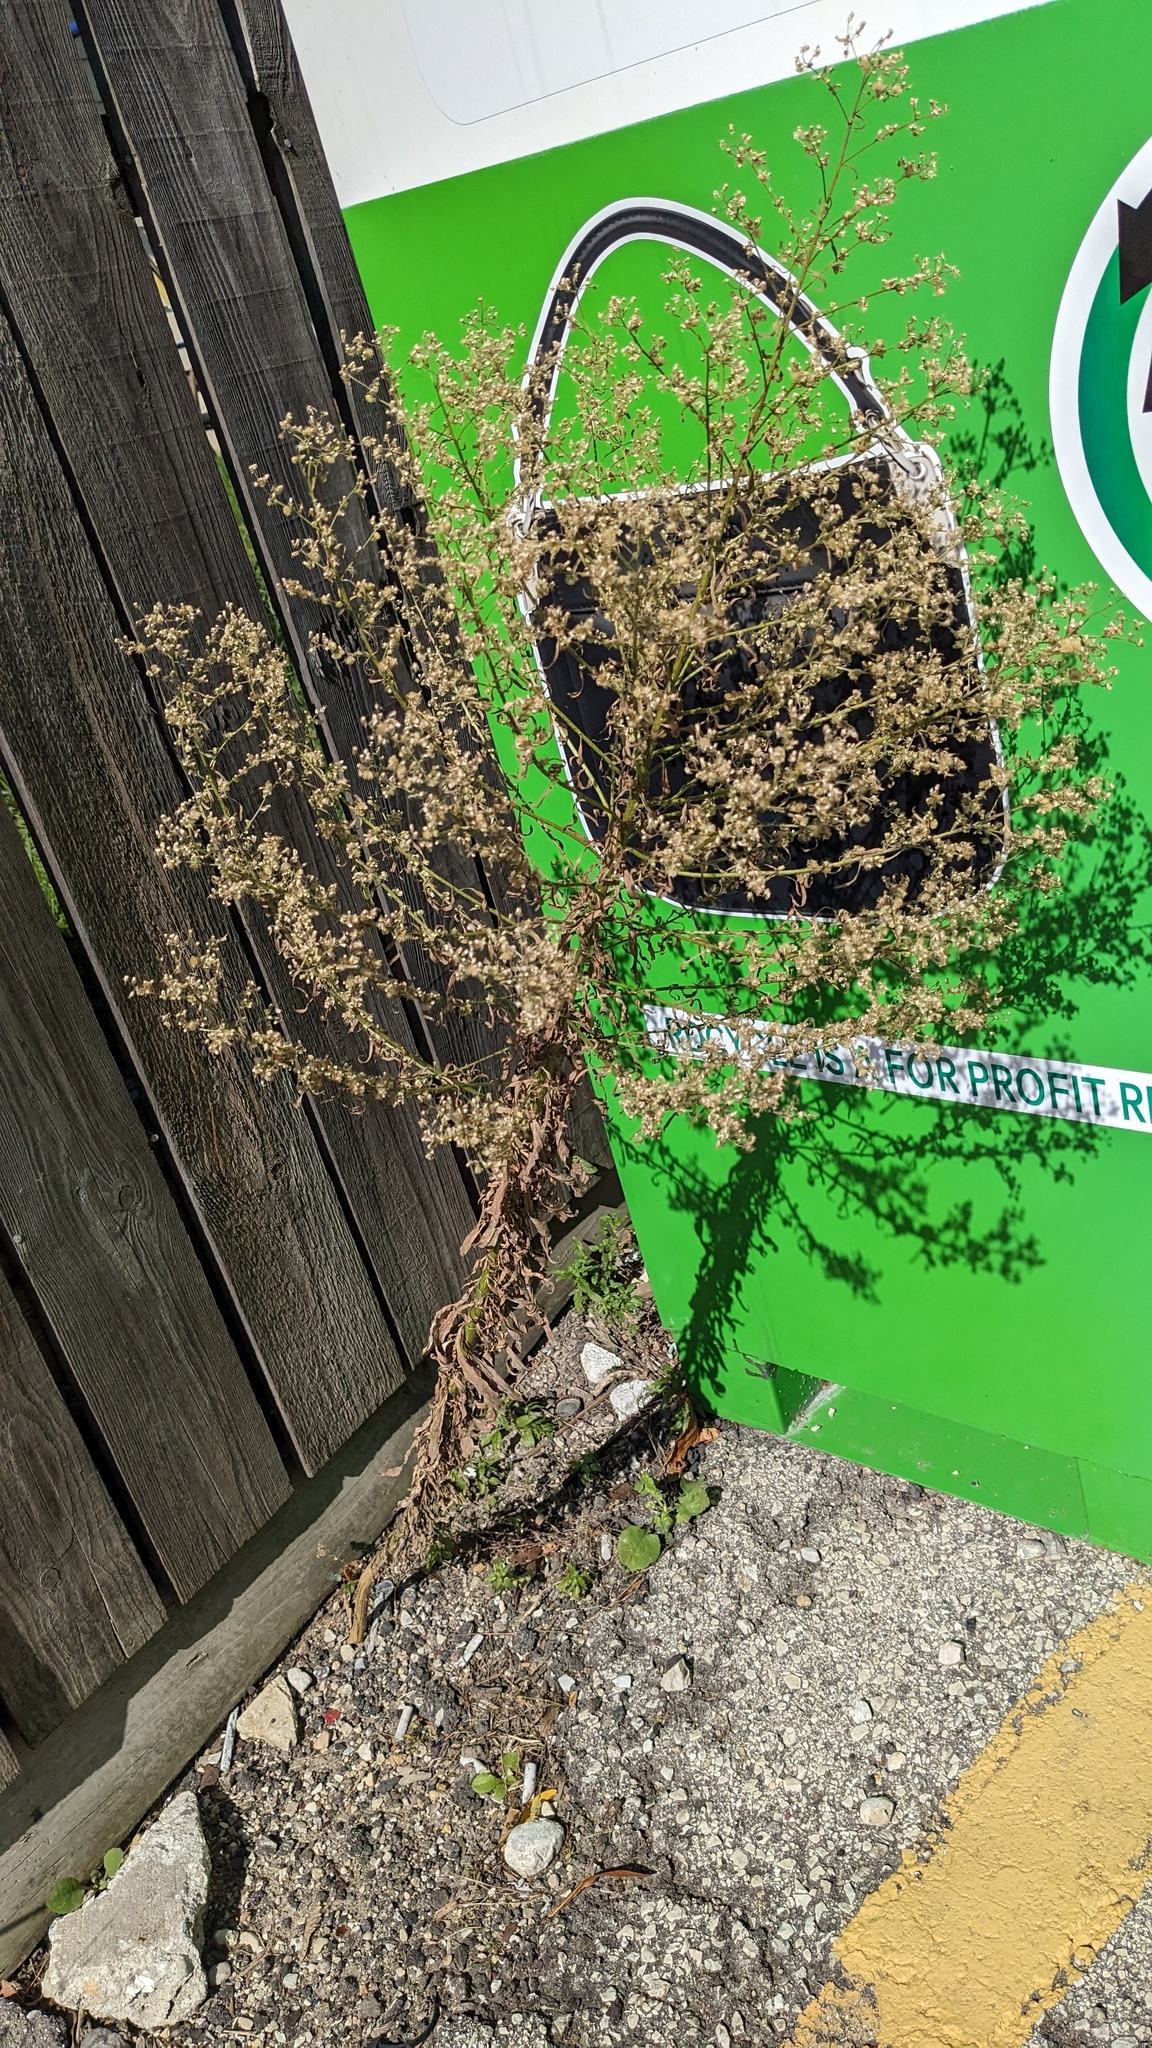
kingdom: Plantae
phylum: Tracheophyta
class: Magnoliopsida
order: Asterales
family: Asteraceae
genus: Erigeron
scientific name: Erigeron canadensis
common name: Canadian fleabane
